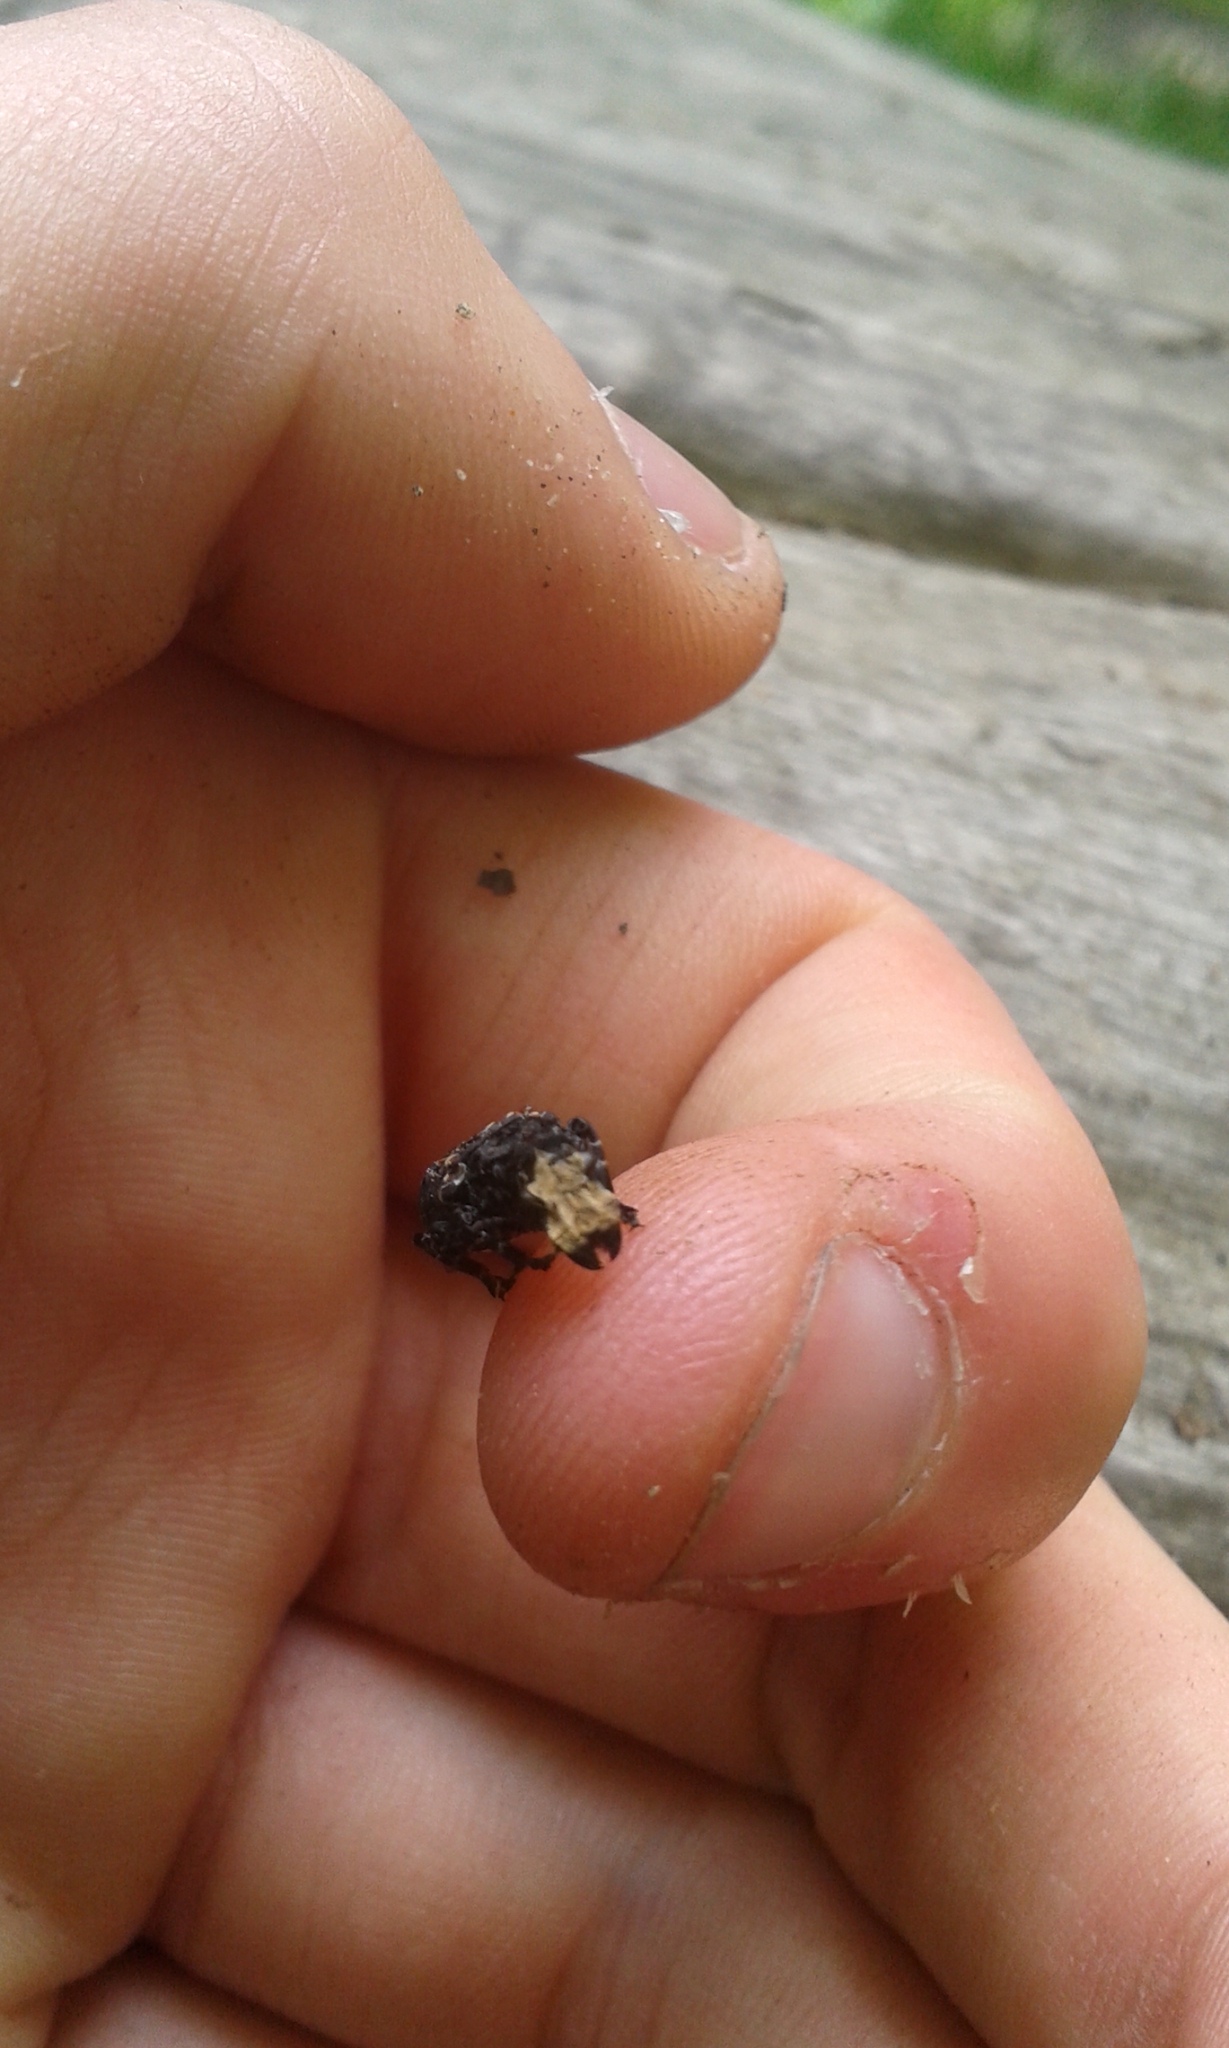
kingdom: Animalia
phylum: Arthropoda
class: Insecta
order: Coleoptera
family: Anthribidae
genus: Platyrhinus
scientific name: Platyrhinus resinosus
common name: Cramp-ball fungus weevil
